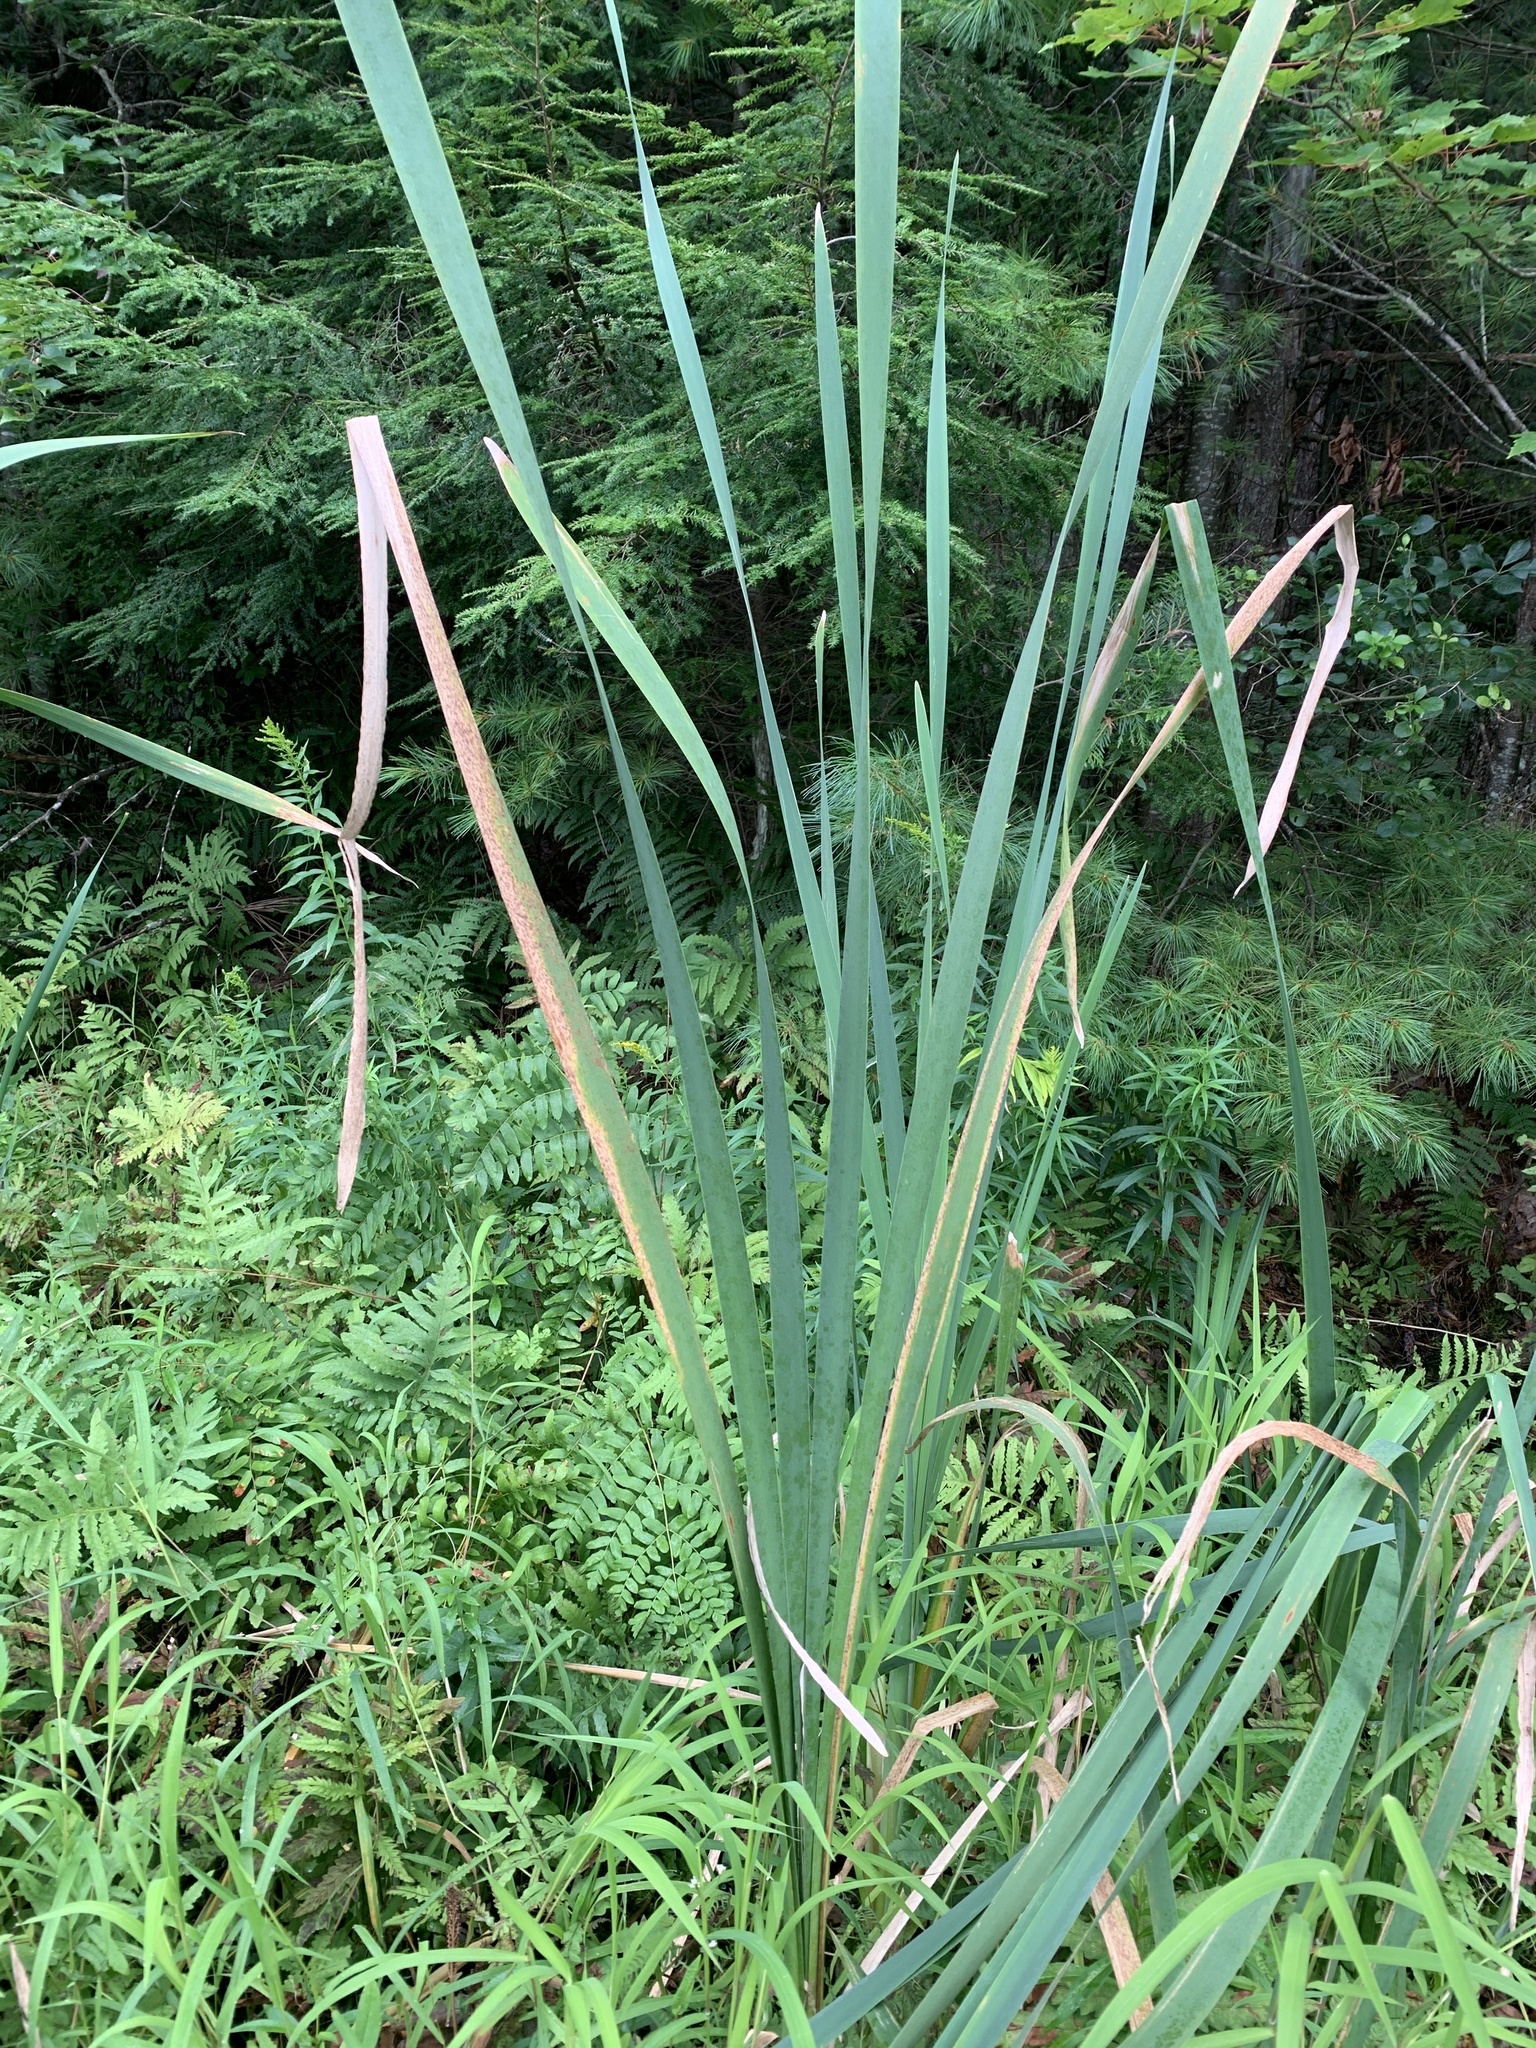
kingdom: Plantae
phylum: Tracheophyta
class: Liliopsida
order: Poales
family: Typhaceae
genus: Typha
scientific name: Typha latifolia
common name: Broadleaf cattail
